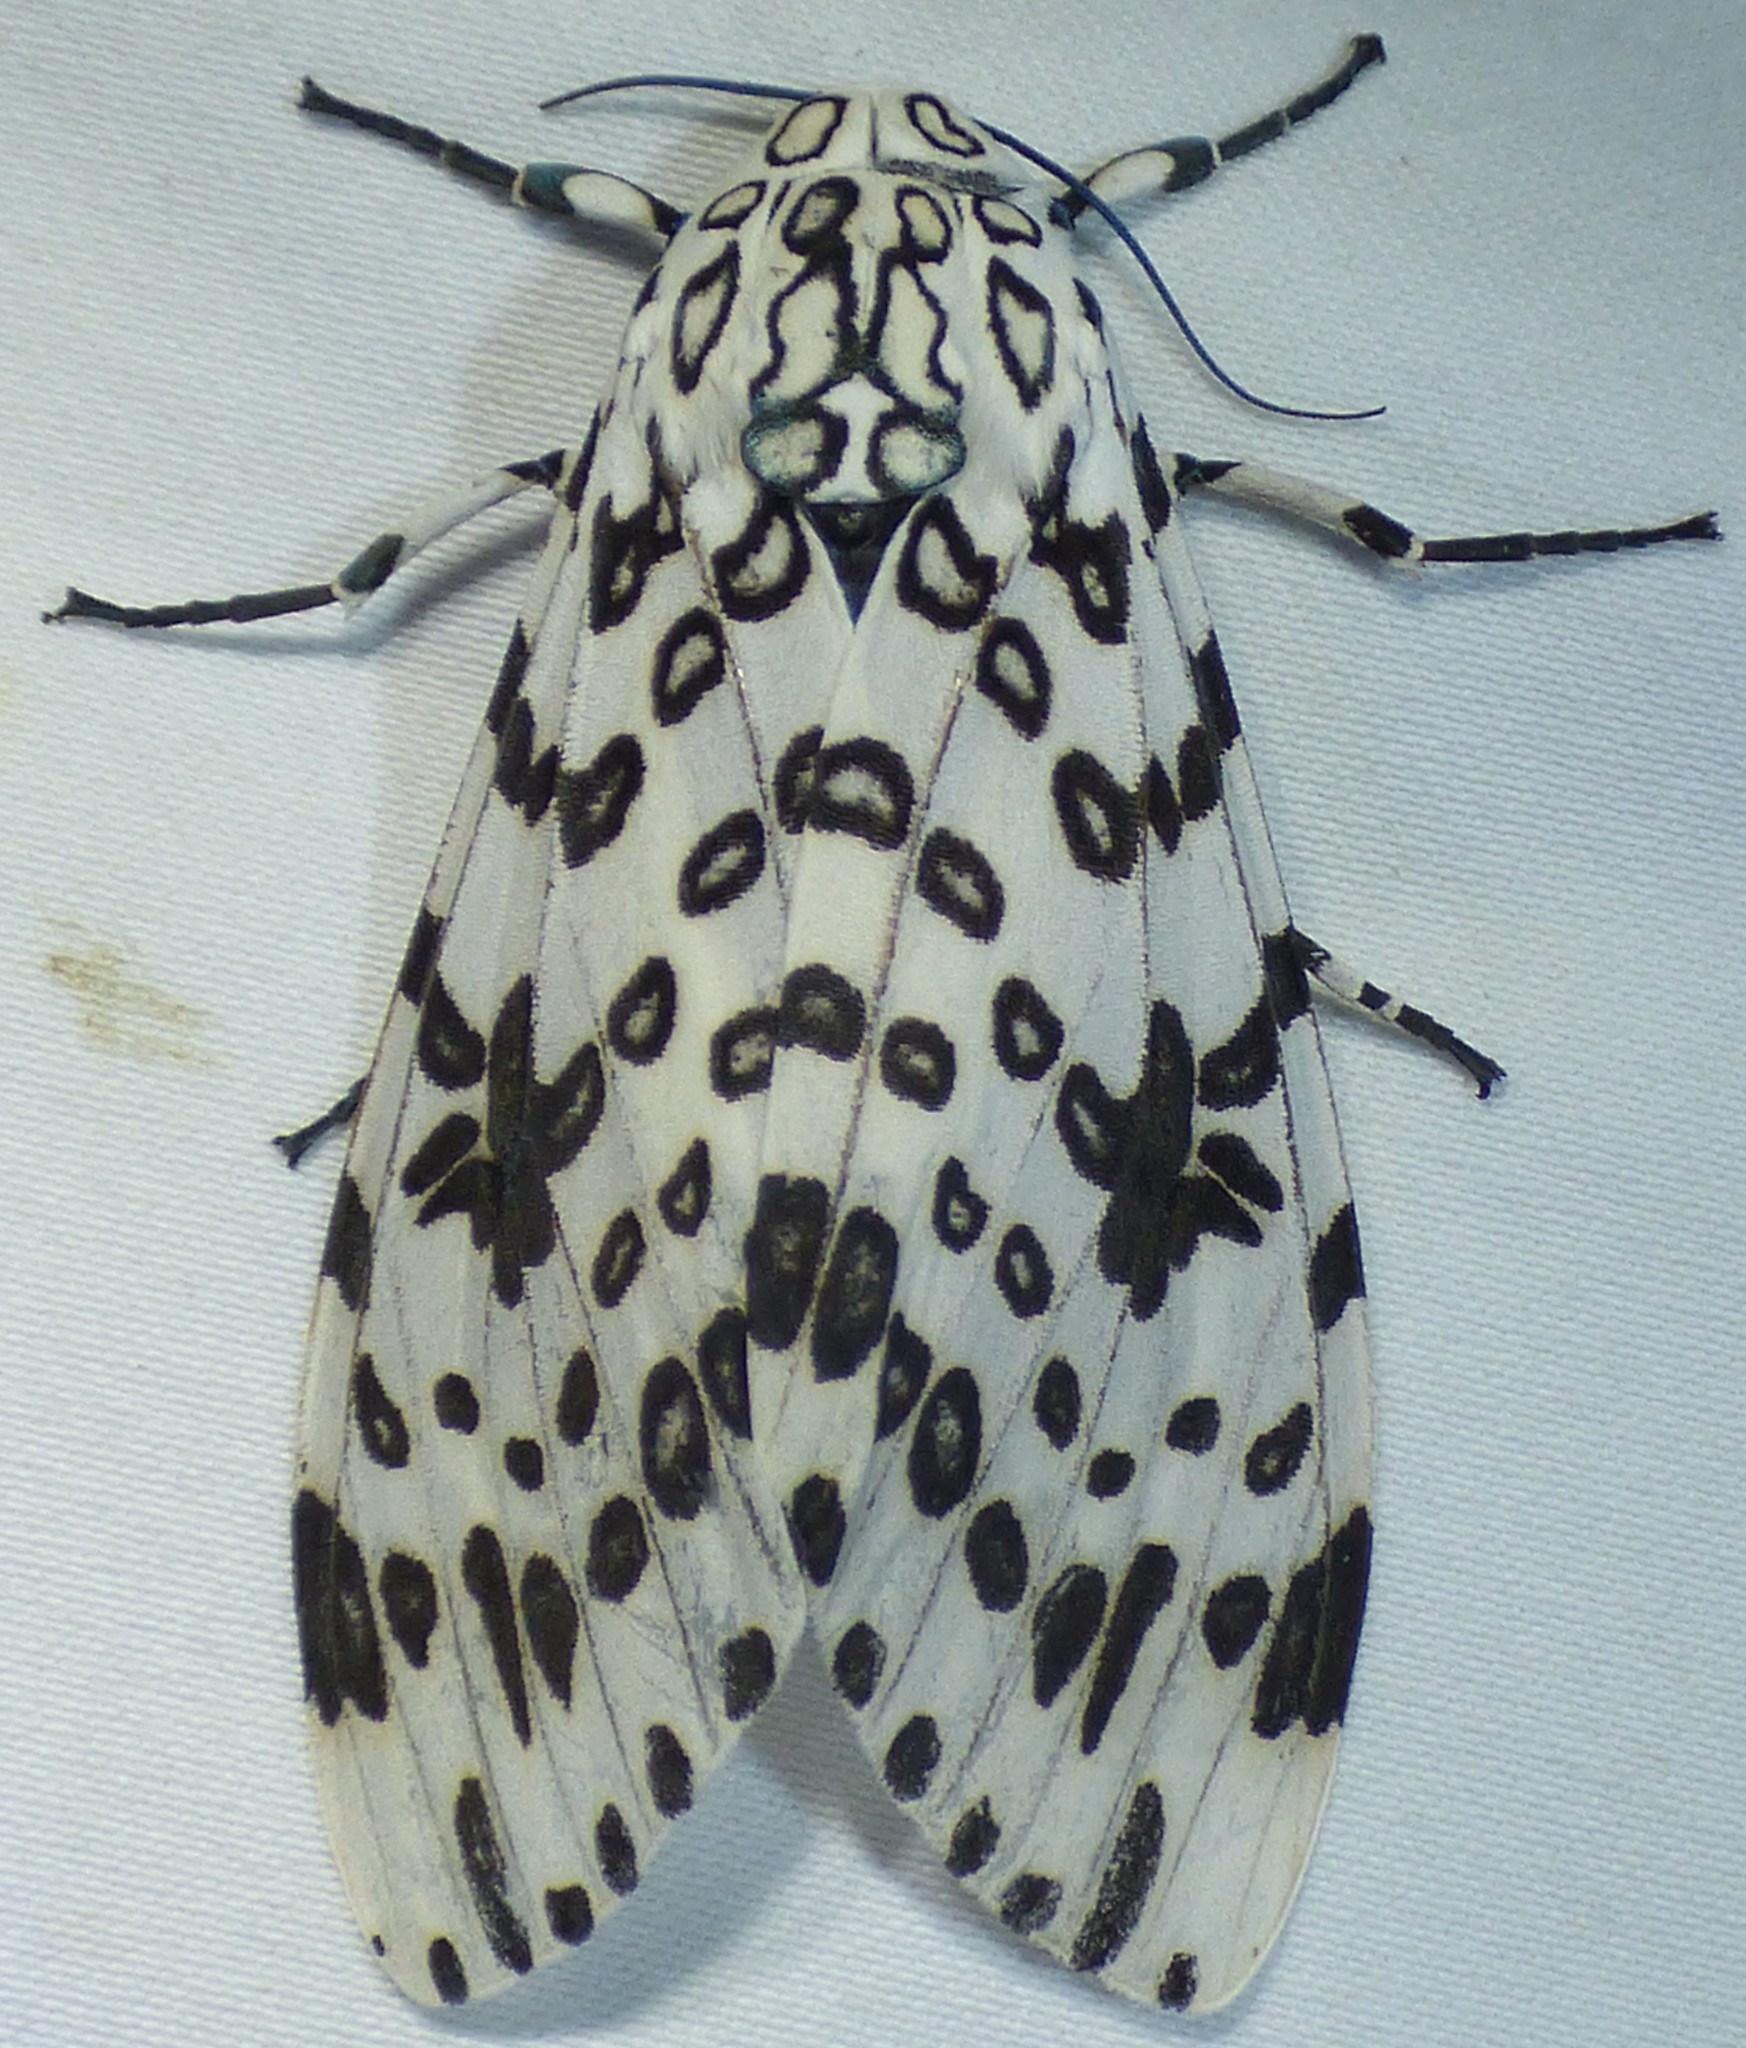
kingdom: Animalia
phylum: Arthropoda
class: Insecta
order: Lepidoptera
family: Erebidae
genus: Hypercompe
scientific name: Hypercompe scribonia
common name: Giant leopard moth
